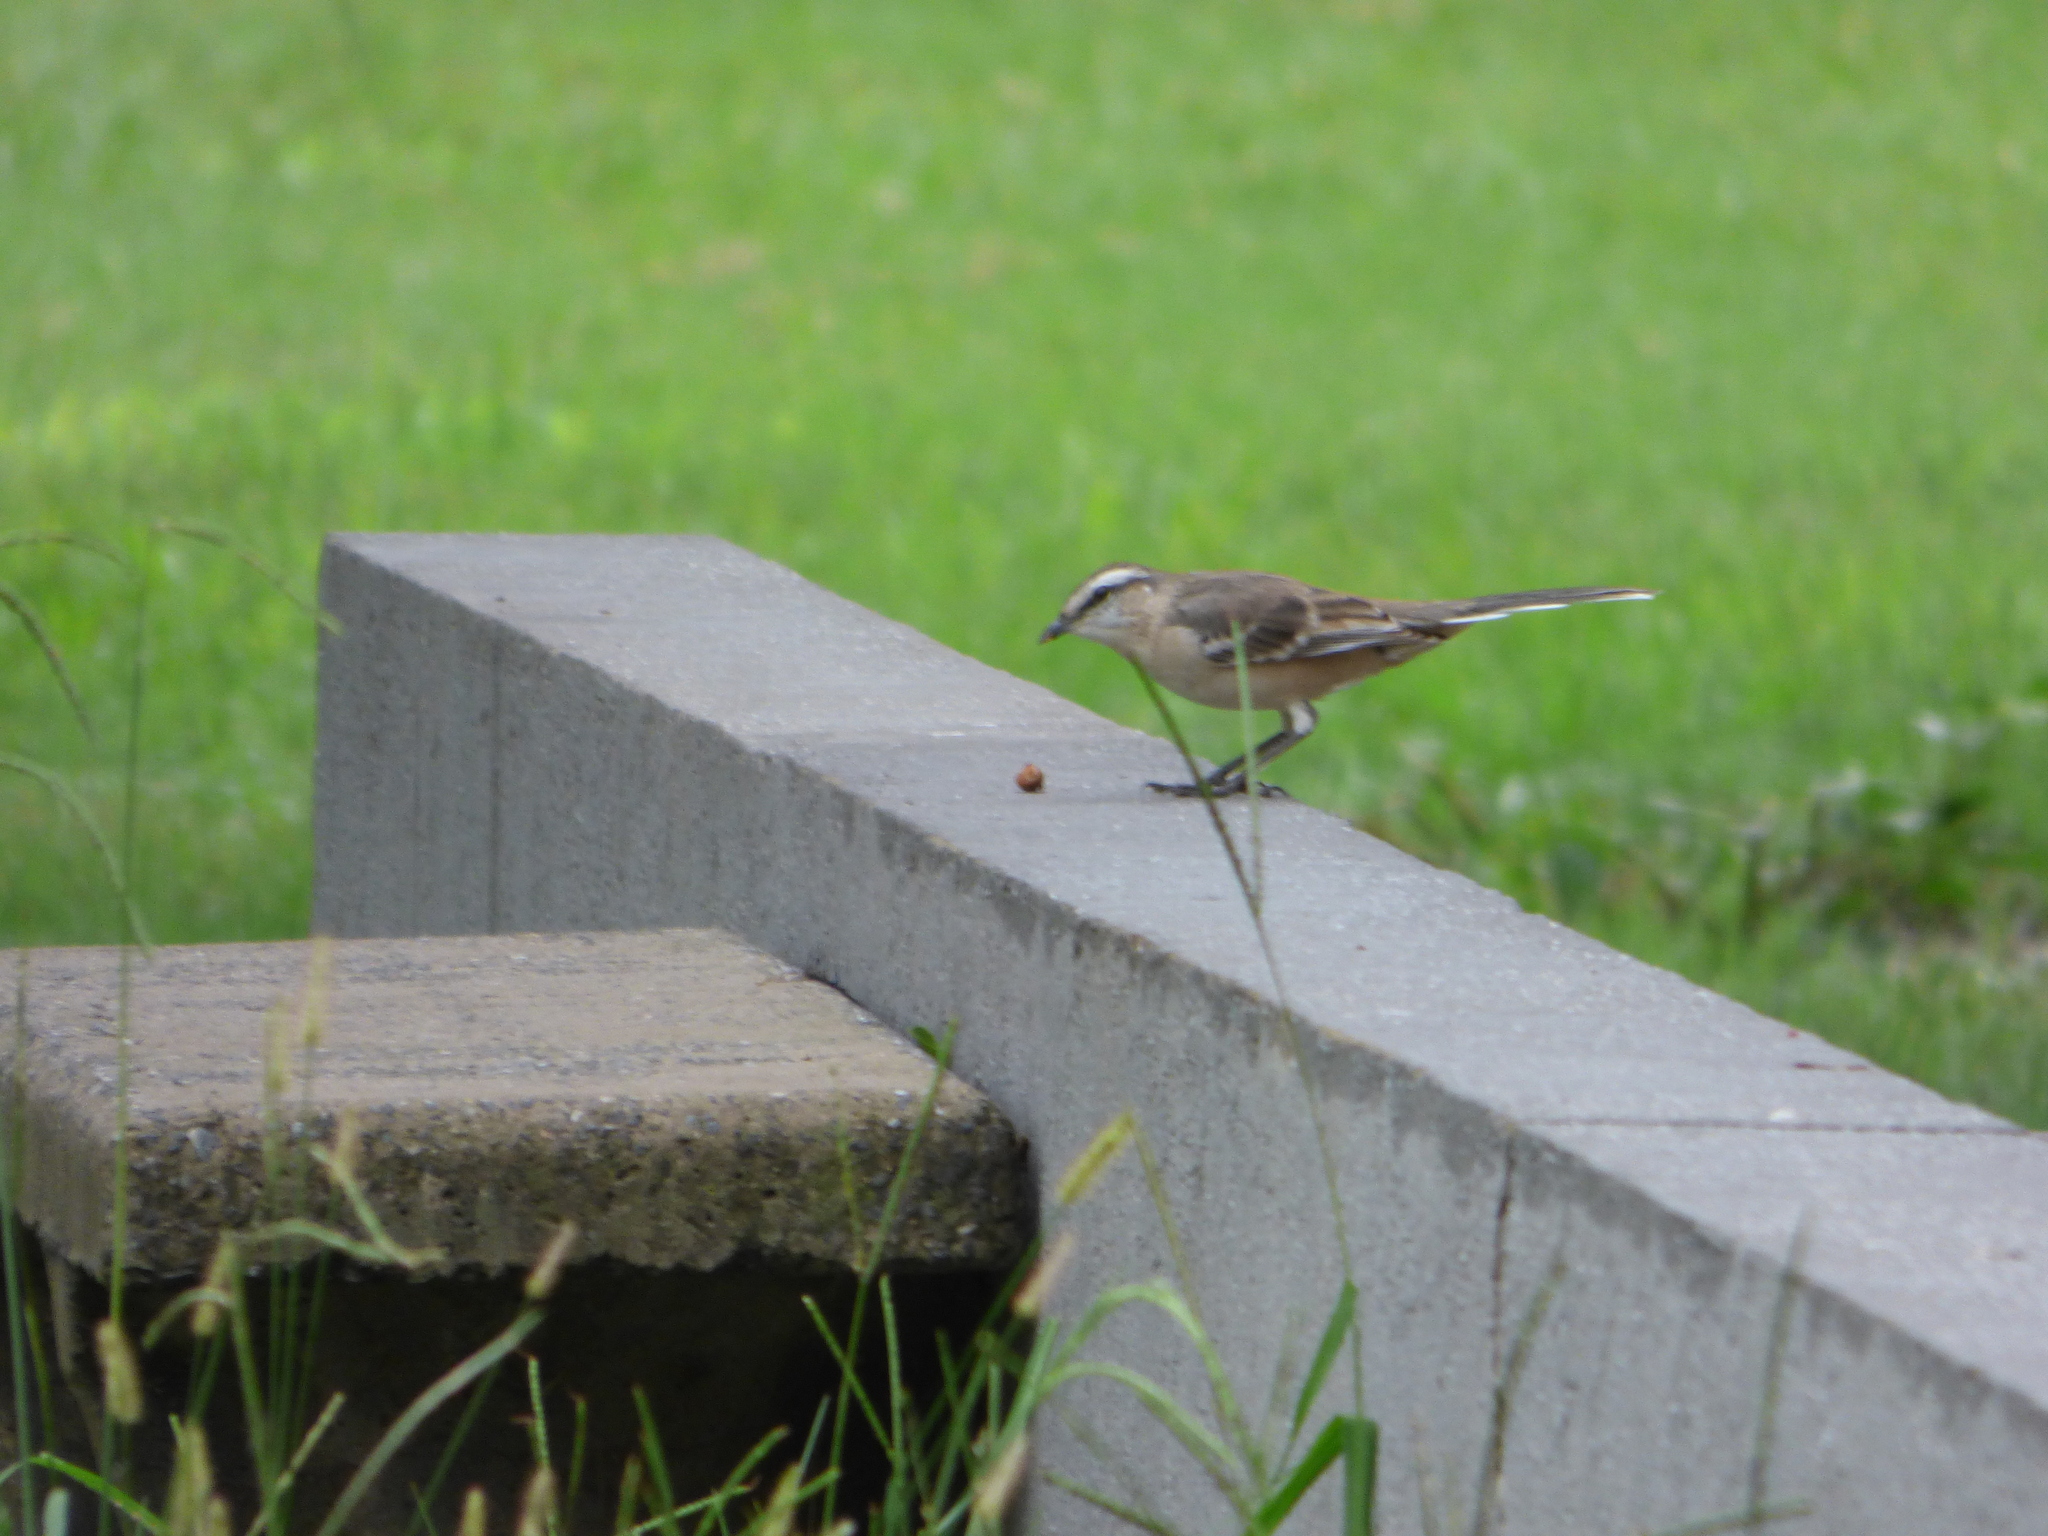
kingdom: Animalia
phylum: Chordata
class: Aves
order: Passeriformes
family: Mimidae
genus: Mimus
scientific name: Mimus saturninus
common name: Chalk-browed mockingbird
